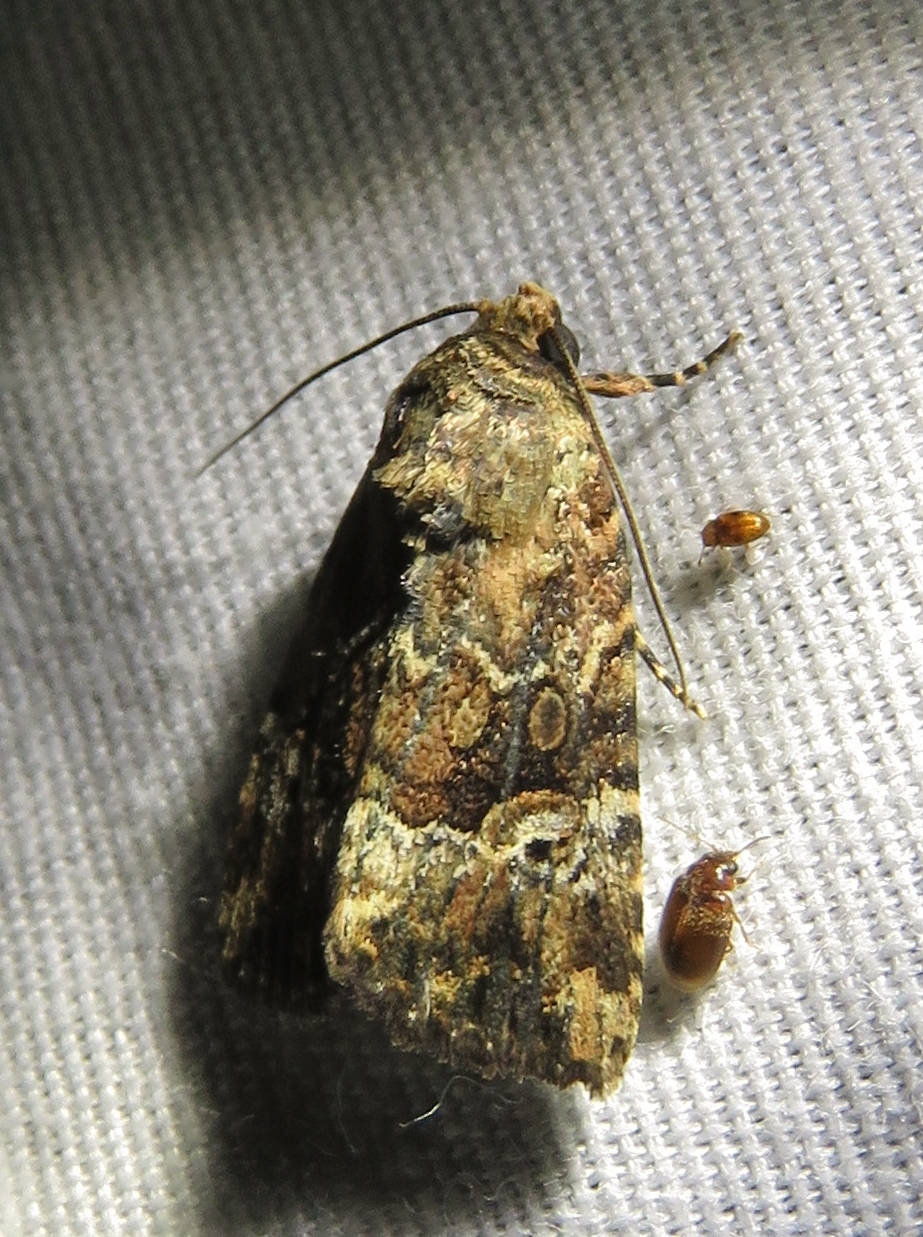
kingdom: Animalia
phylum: Arthropoda
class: Insecta
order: Lepidoptera
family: Noctuidae
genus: Elaphria
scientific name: Elaphria chalcedonia
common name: Chalcedony midget
